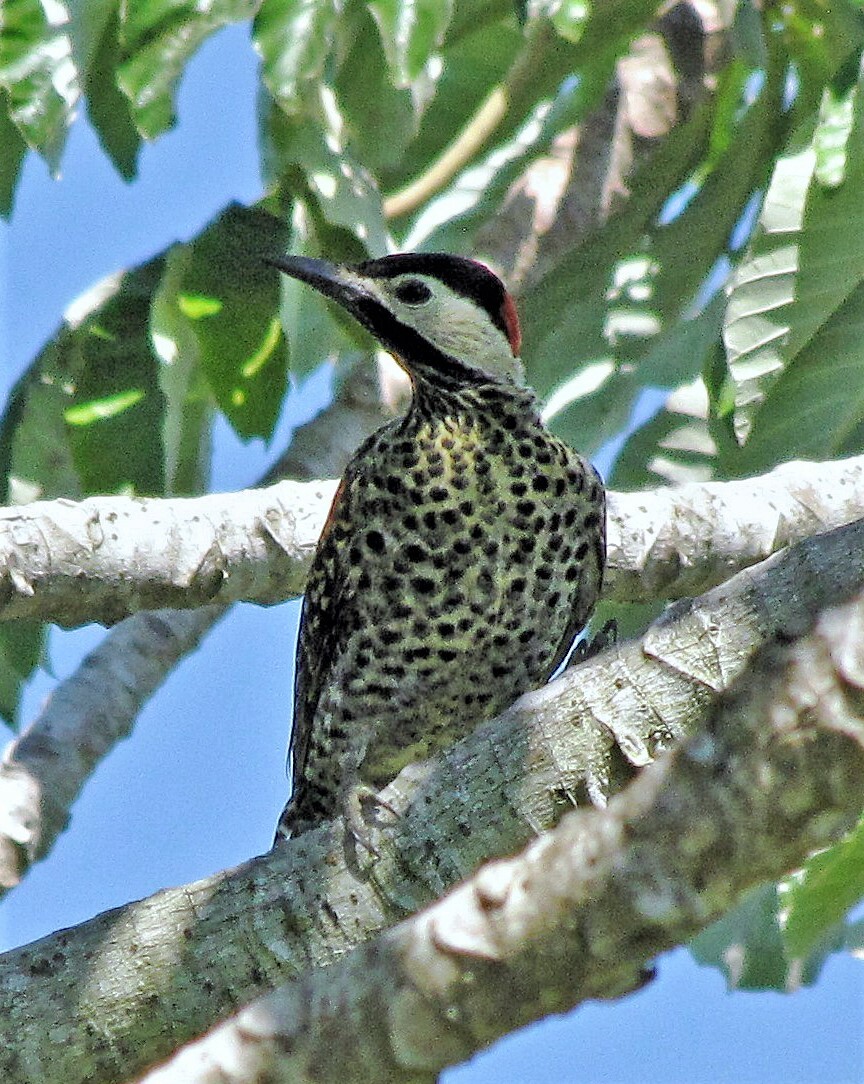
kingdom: Animalia
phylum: Chordata
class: Aves
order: Piciformes
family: Picidae
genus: Colaptes
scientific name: Colaptes melanochloros
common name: Green-barred woodpecker
